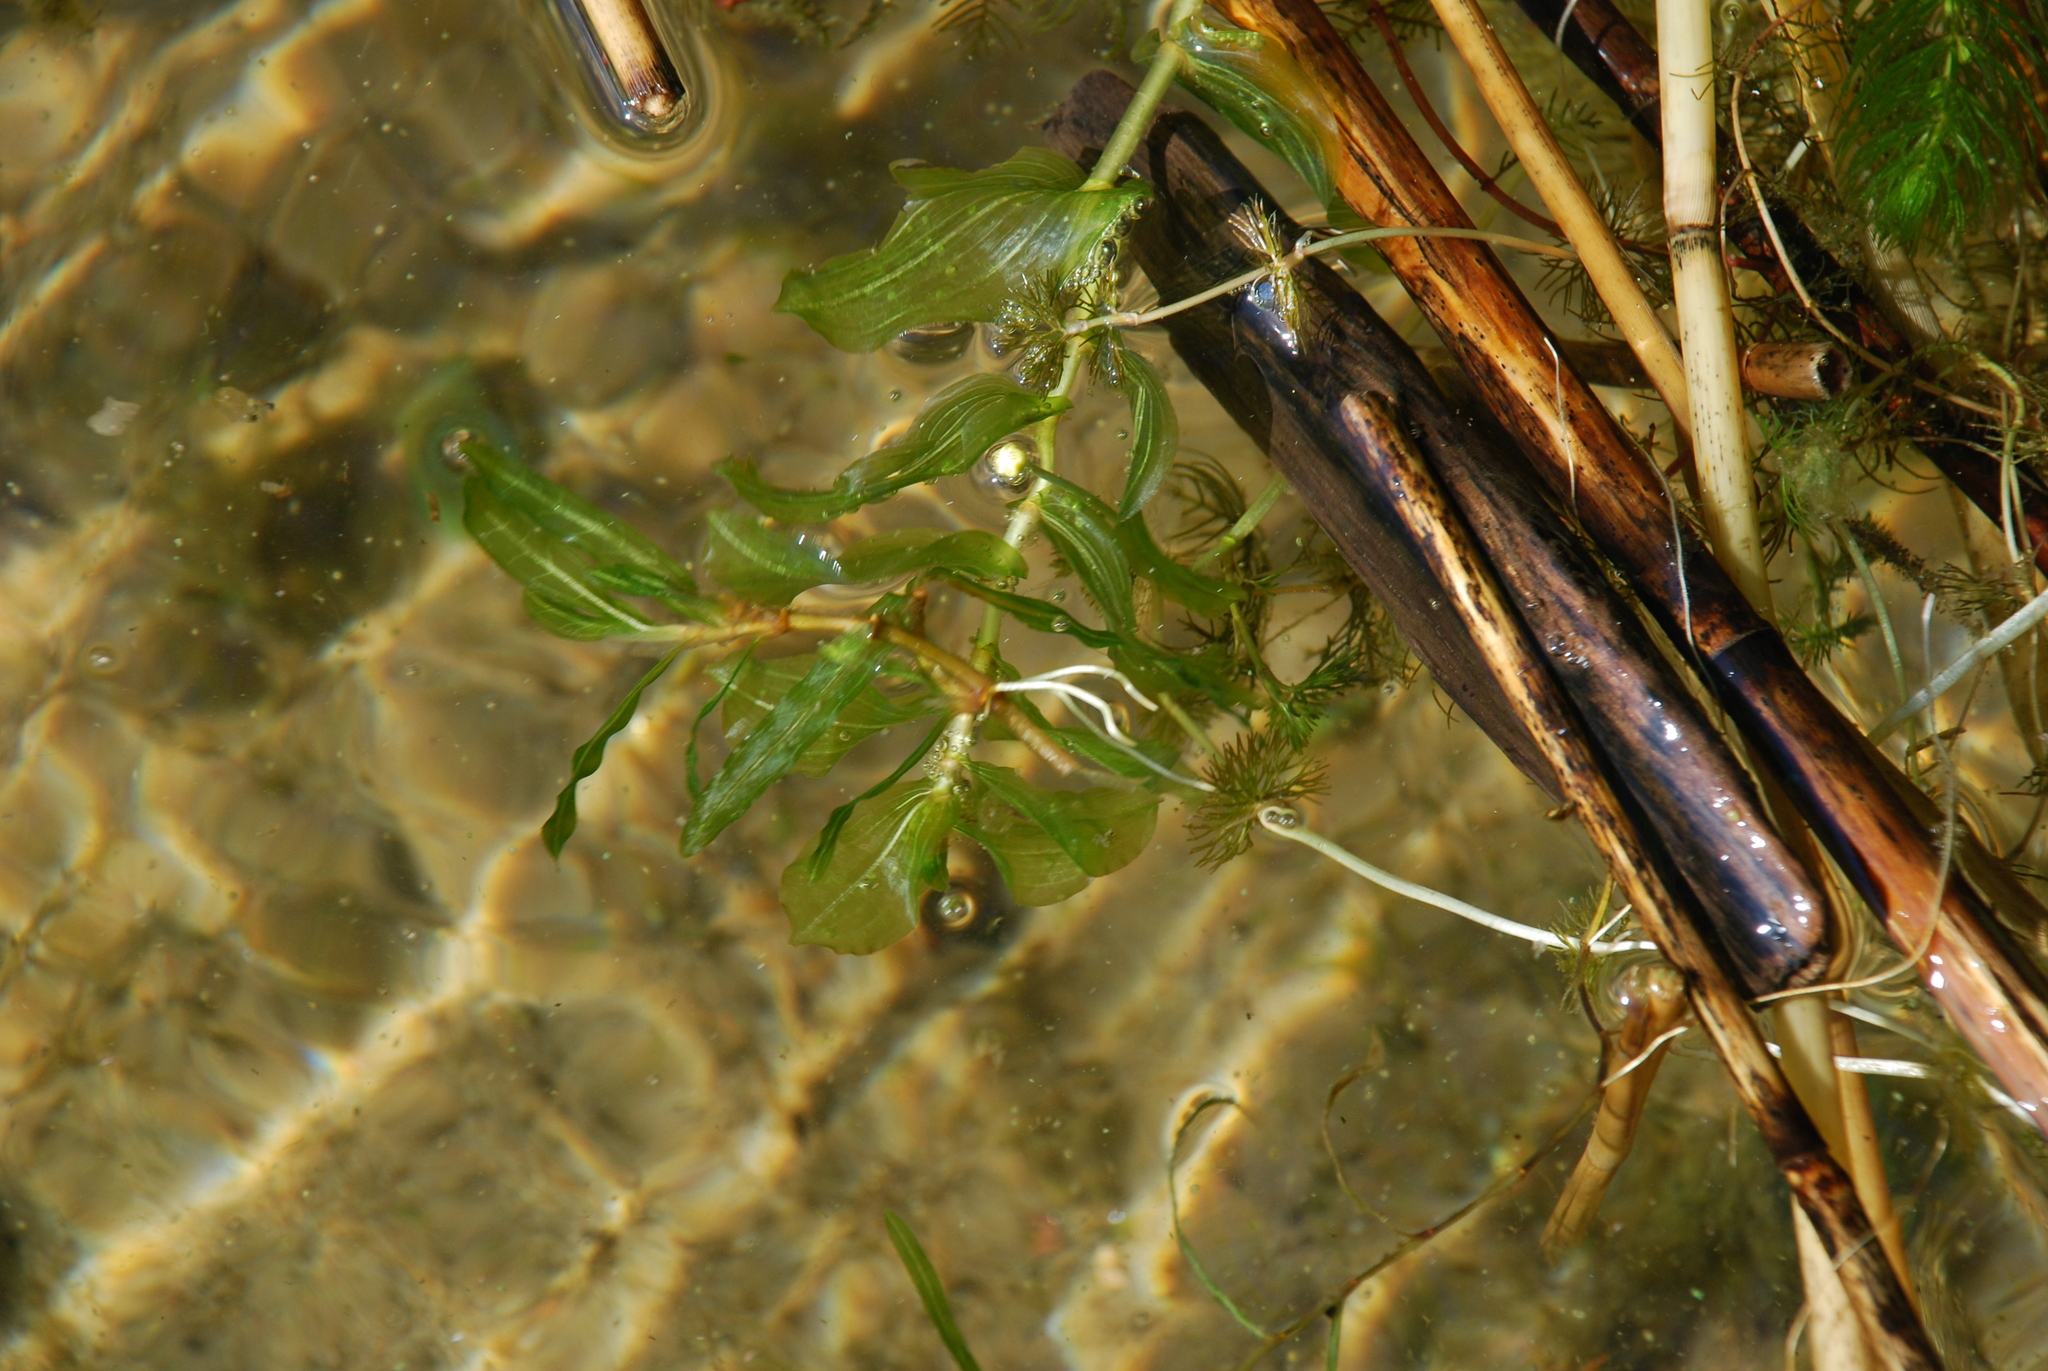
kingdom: Plantae
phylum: Tracheophyta
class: Liliopsida
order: Alismatales
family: Potamogetonaceae
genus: Potamogeton
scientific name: Potamogeton perfoliatus
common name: Perfoliate pondweed
